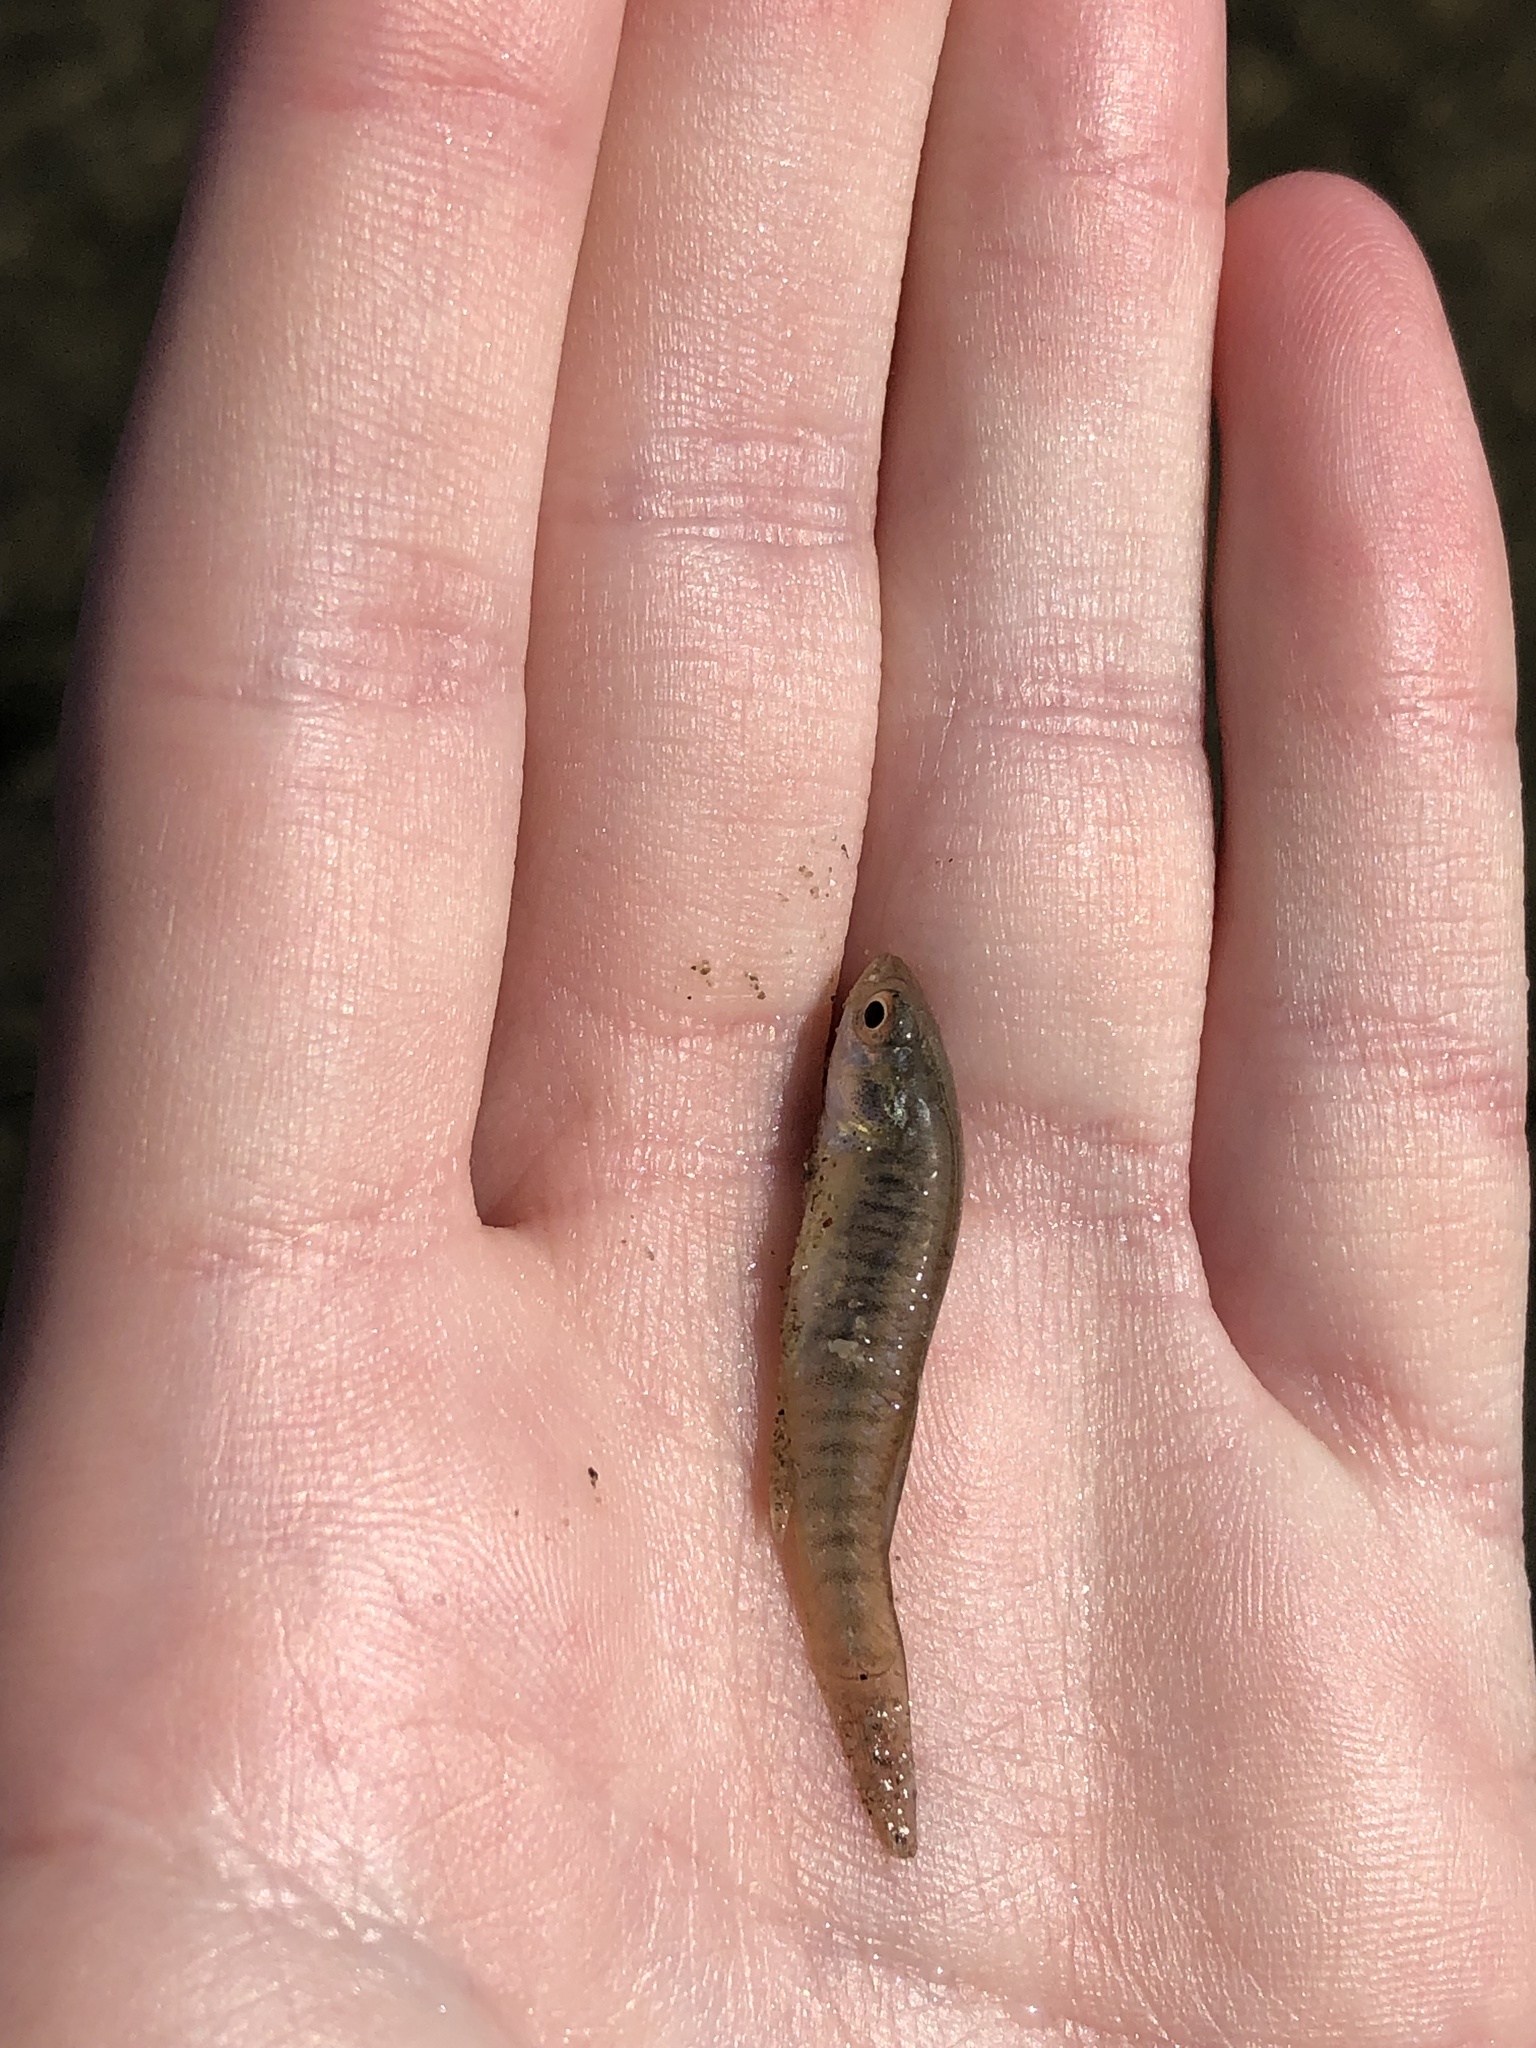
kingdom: Animalia
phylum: Chordata
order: Cyprinodontiformes
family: Fundulidae
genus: Fundulus
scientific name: Fundulus heteroclitus
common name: Mummichog
